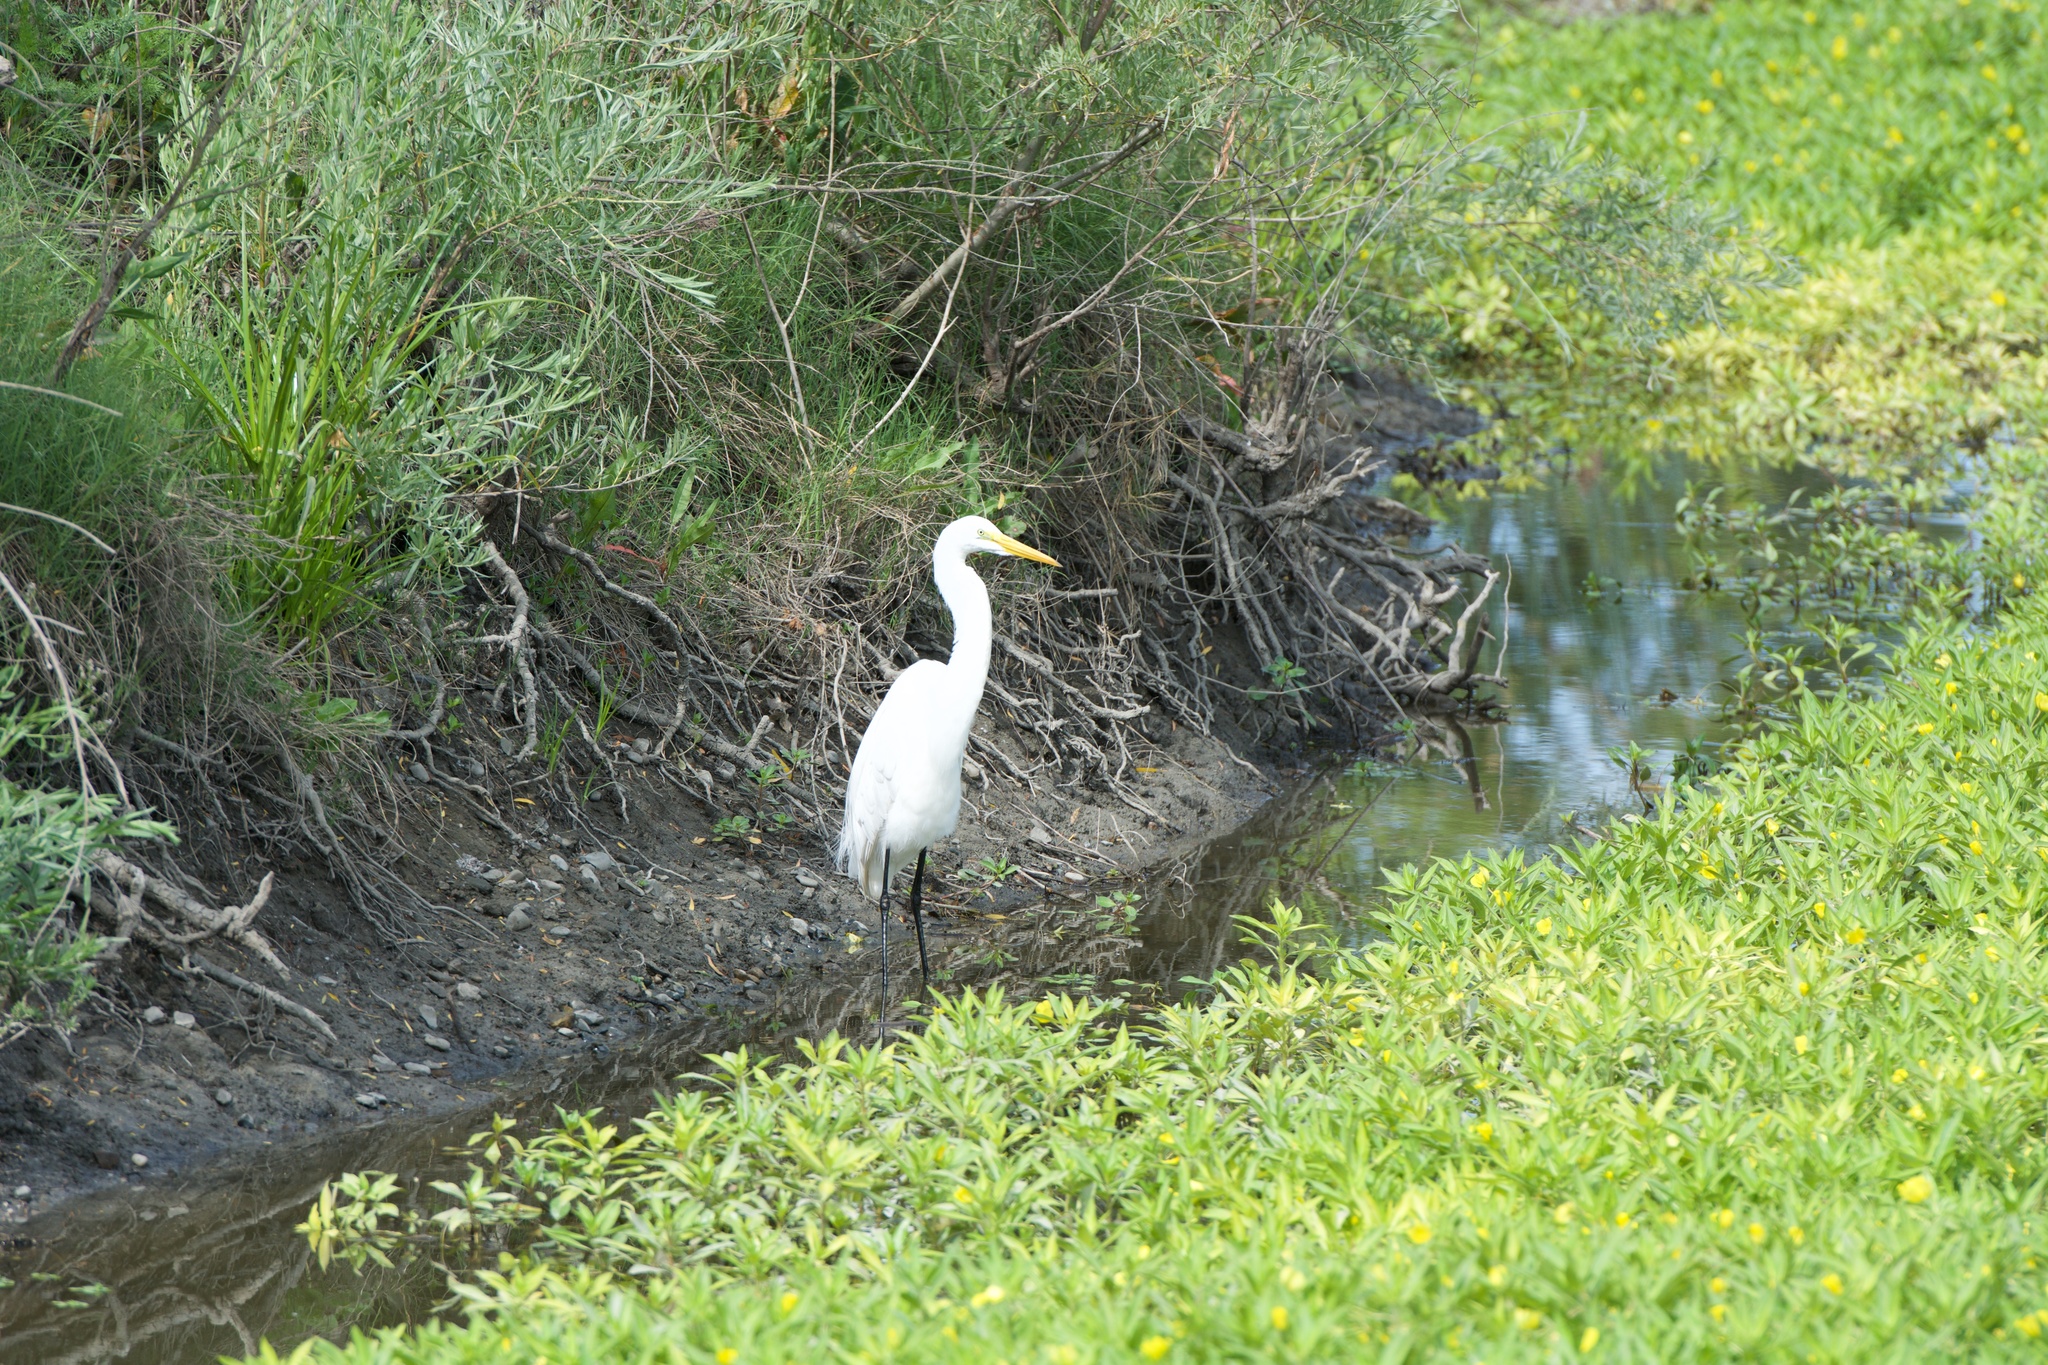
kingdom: Animalia
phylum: Chordata
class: Aves
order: Pelecaniformes
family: Ardeidae
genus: Ardea
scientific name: Ardea alba
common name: Great egret
